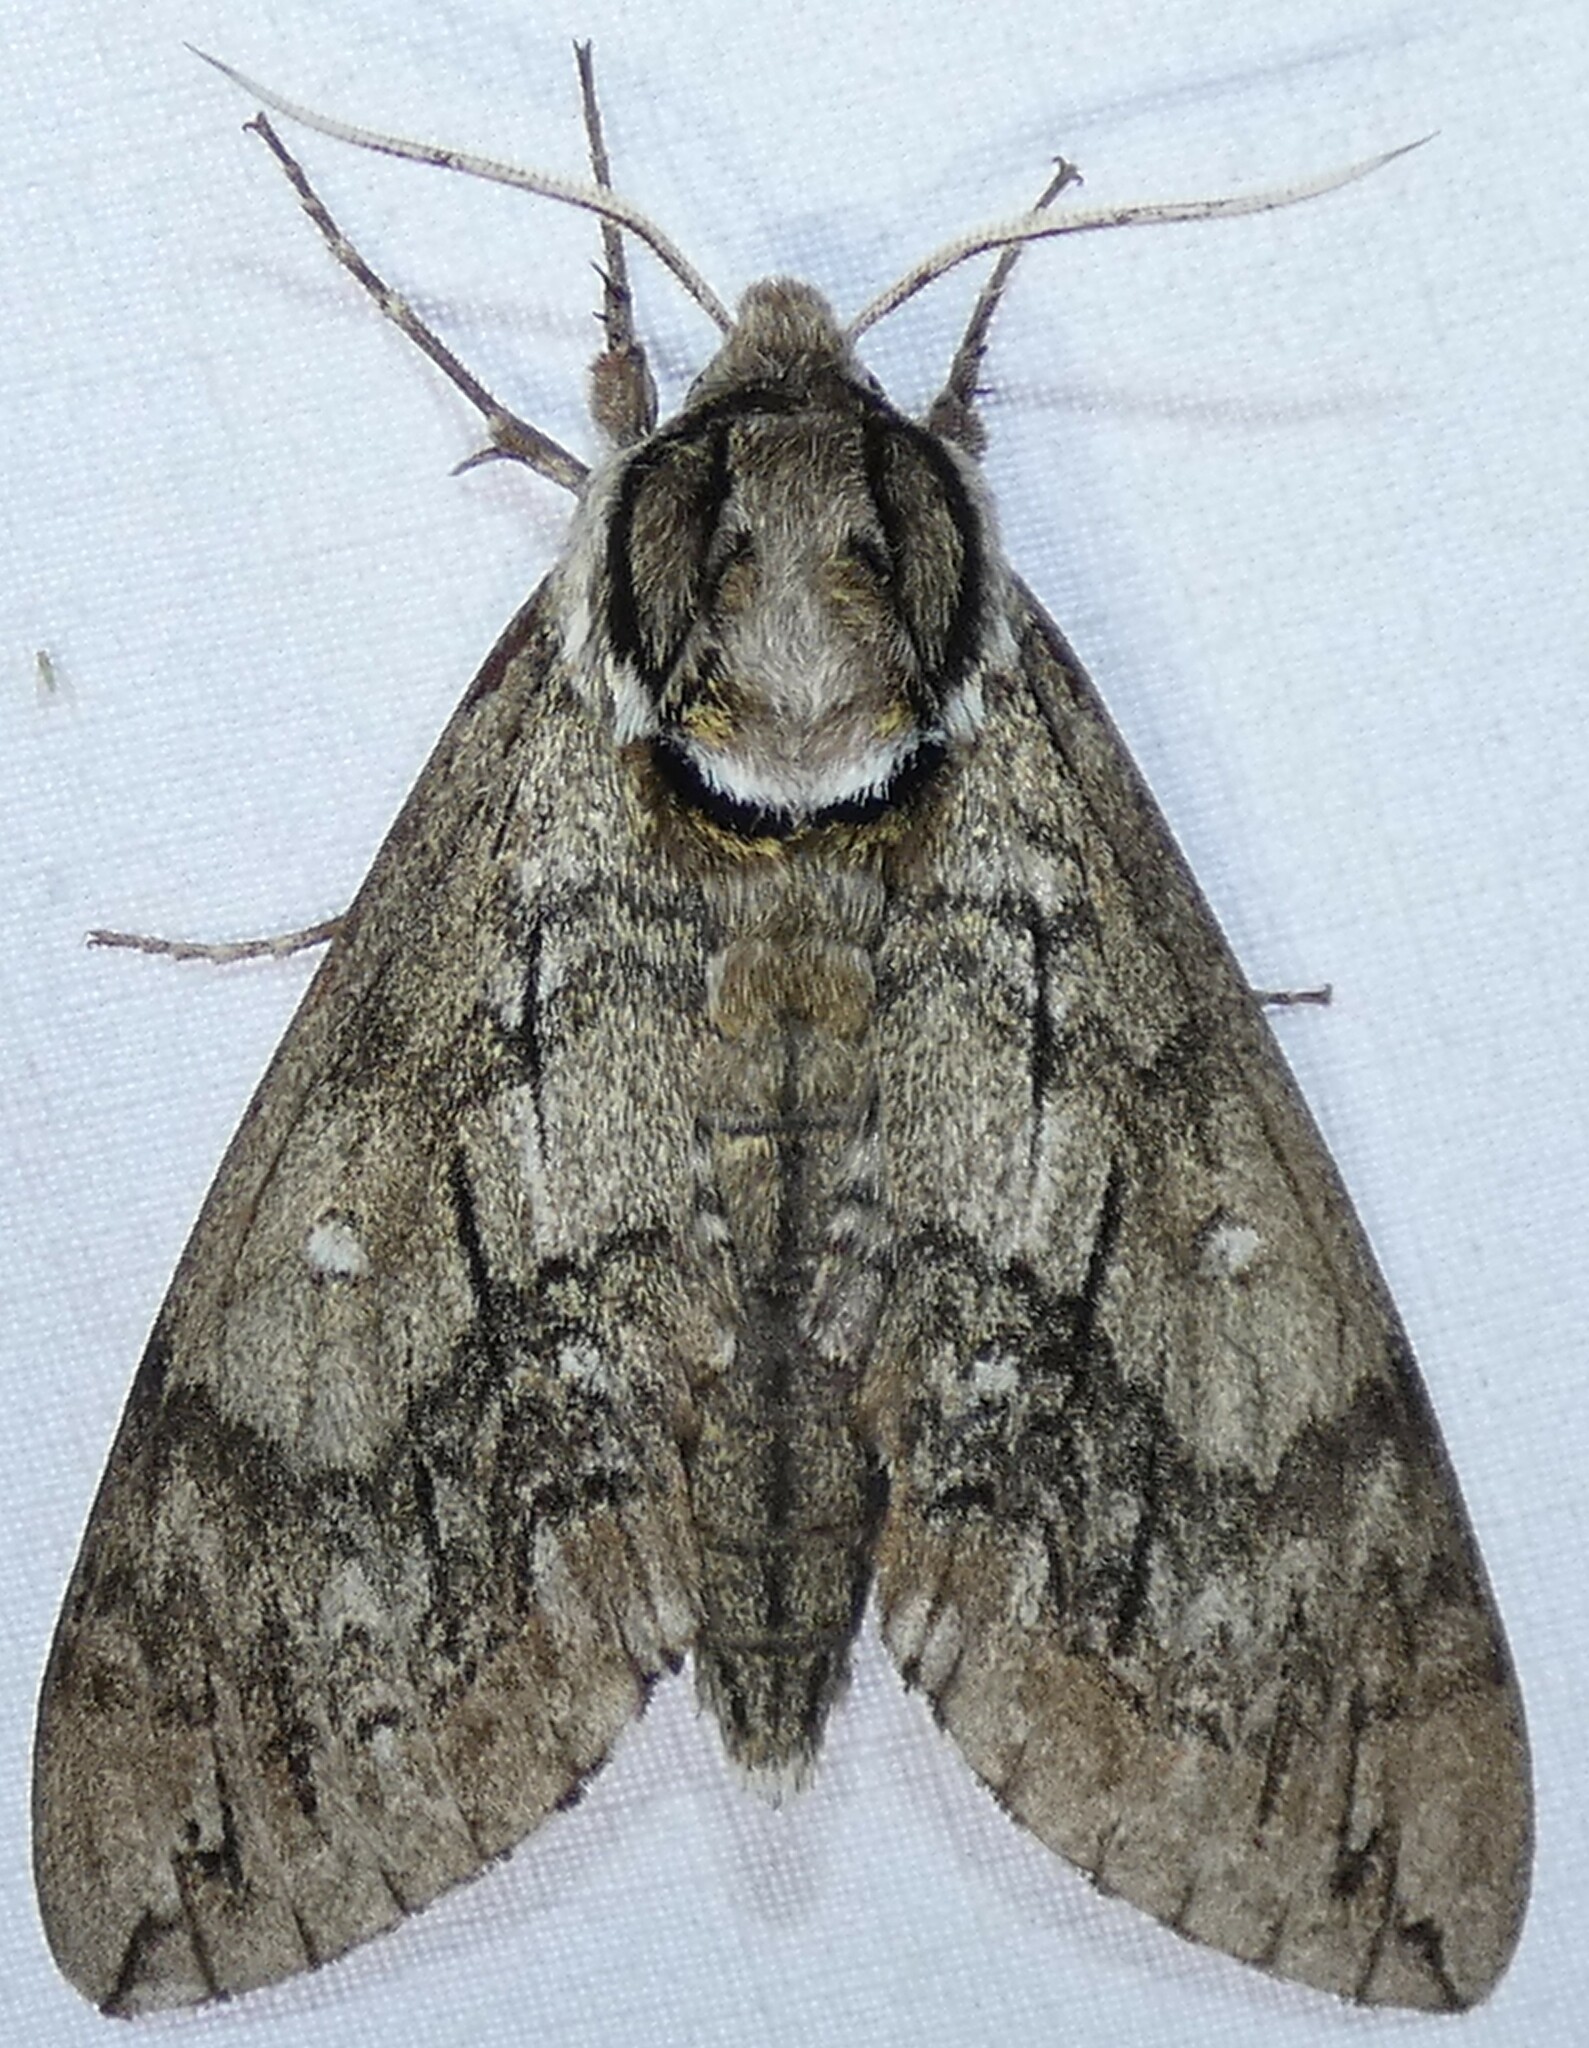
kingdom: Animalia
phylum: Arthropoda
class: Insecta
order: Lepidoptera
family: Sphingidae
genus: Ceratomia
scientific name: Ceratomia undulosa
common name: Waved sphinx
